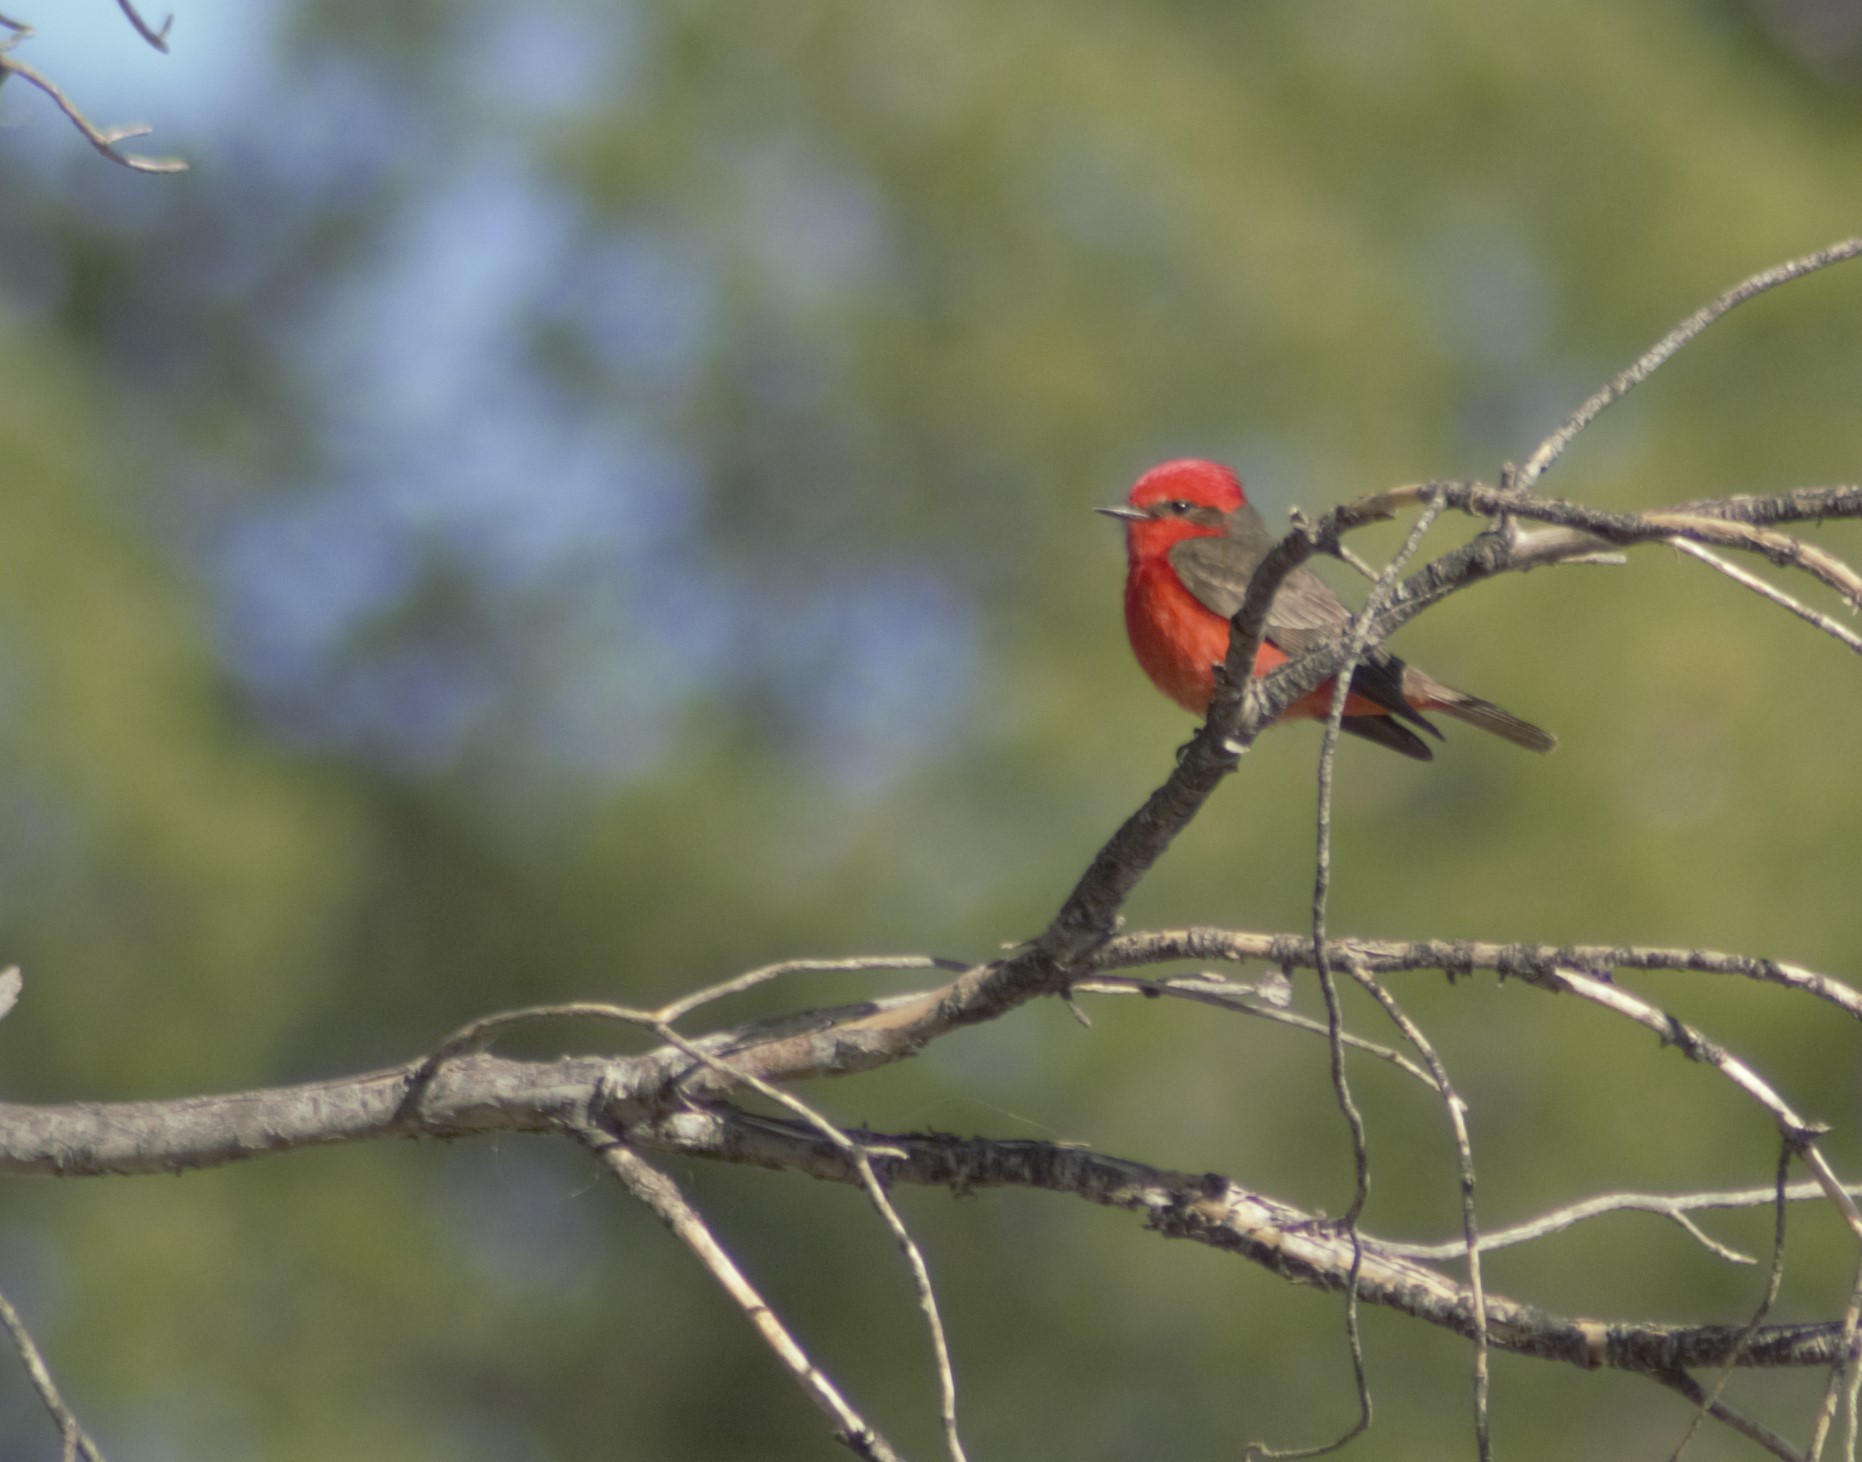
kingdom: Animalia
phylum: Chordata
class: Aves
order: Passeriformes
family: Tyrannidae
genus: Pyrocephalus
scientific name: Pyrocephalus rubinus
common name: Vermilion flycatcher
